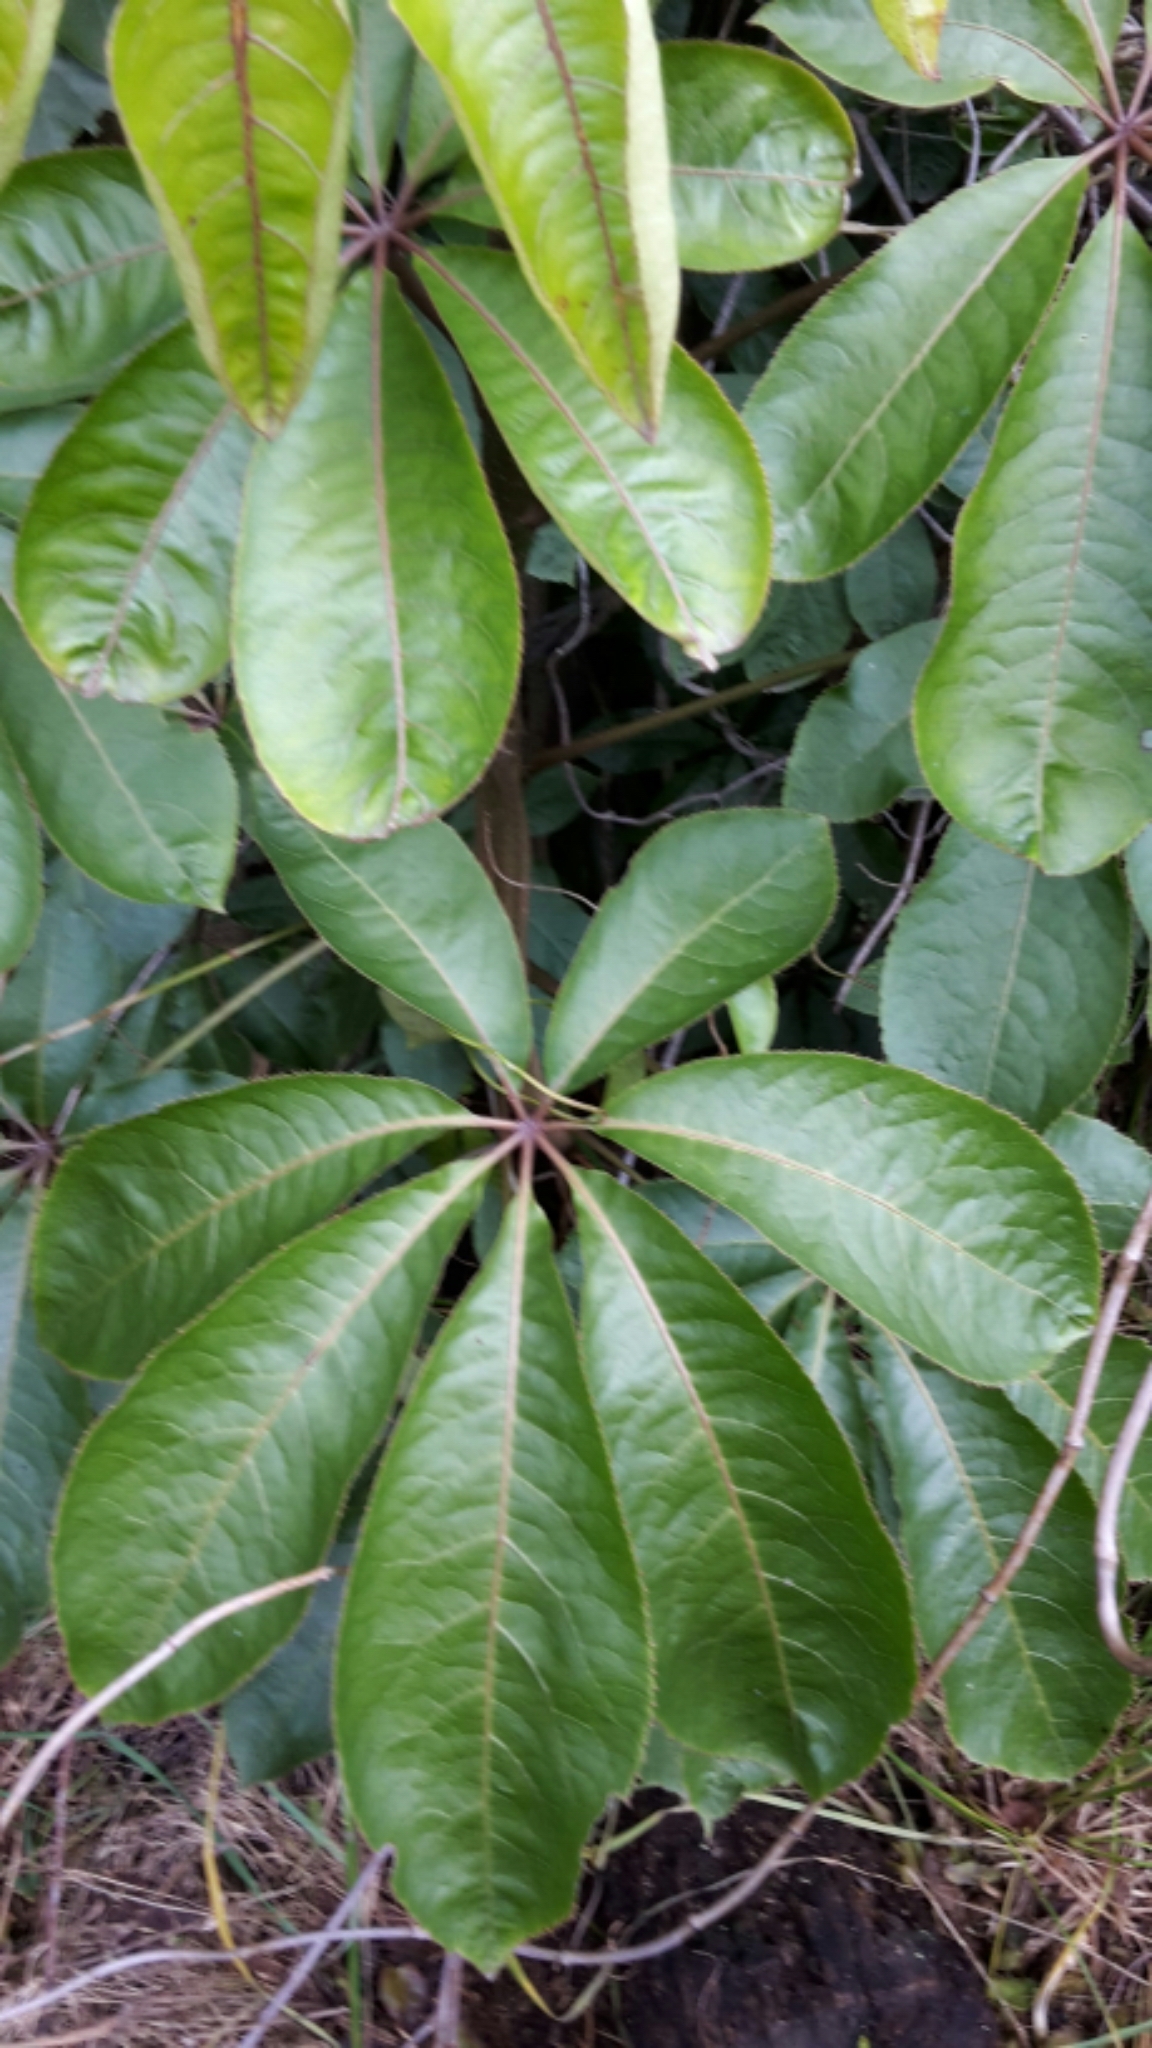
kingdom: Plantae
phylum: Tracheophyta
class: Magnoliopsida
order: Apiales
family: Araliaceae
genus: Schefflera
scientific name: Schefflera digitata
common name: Pate
